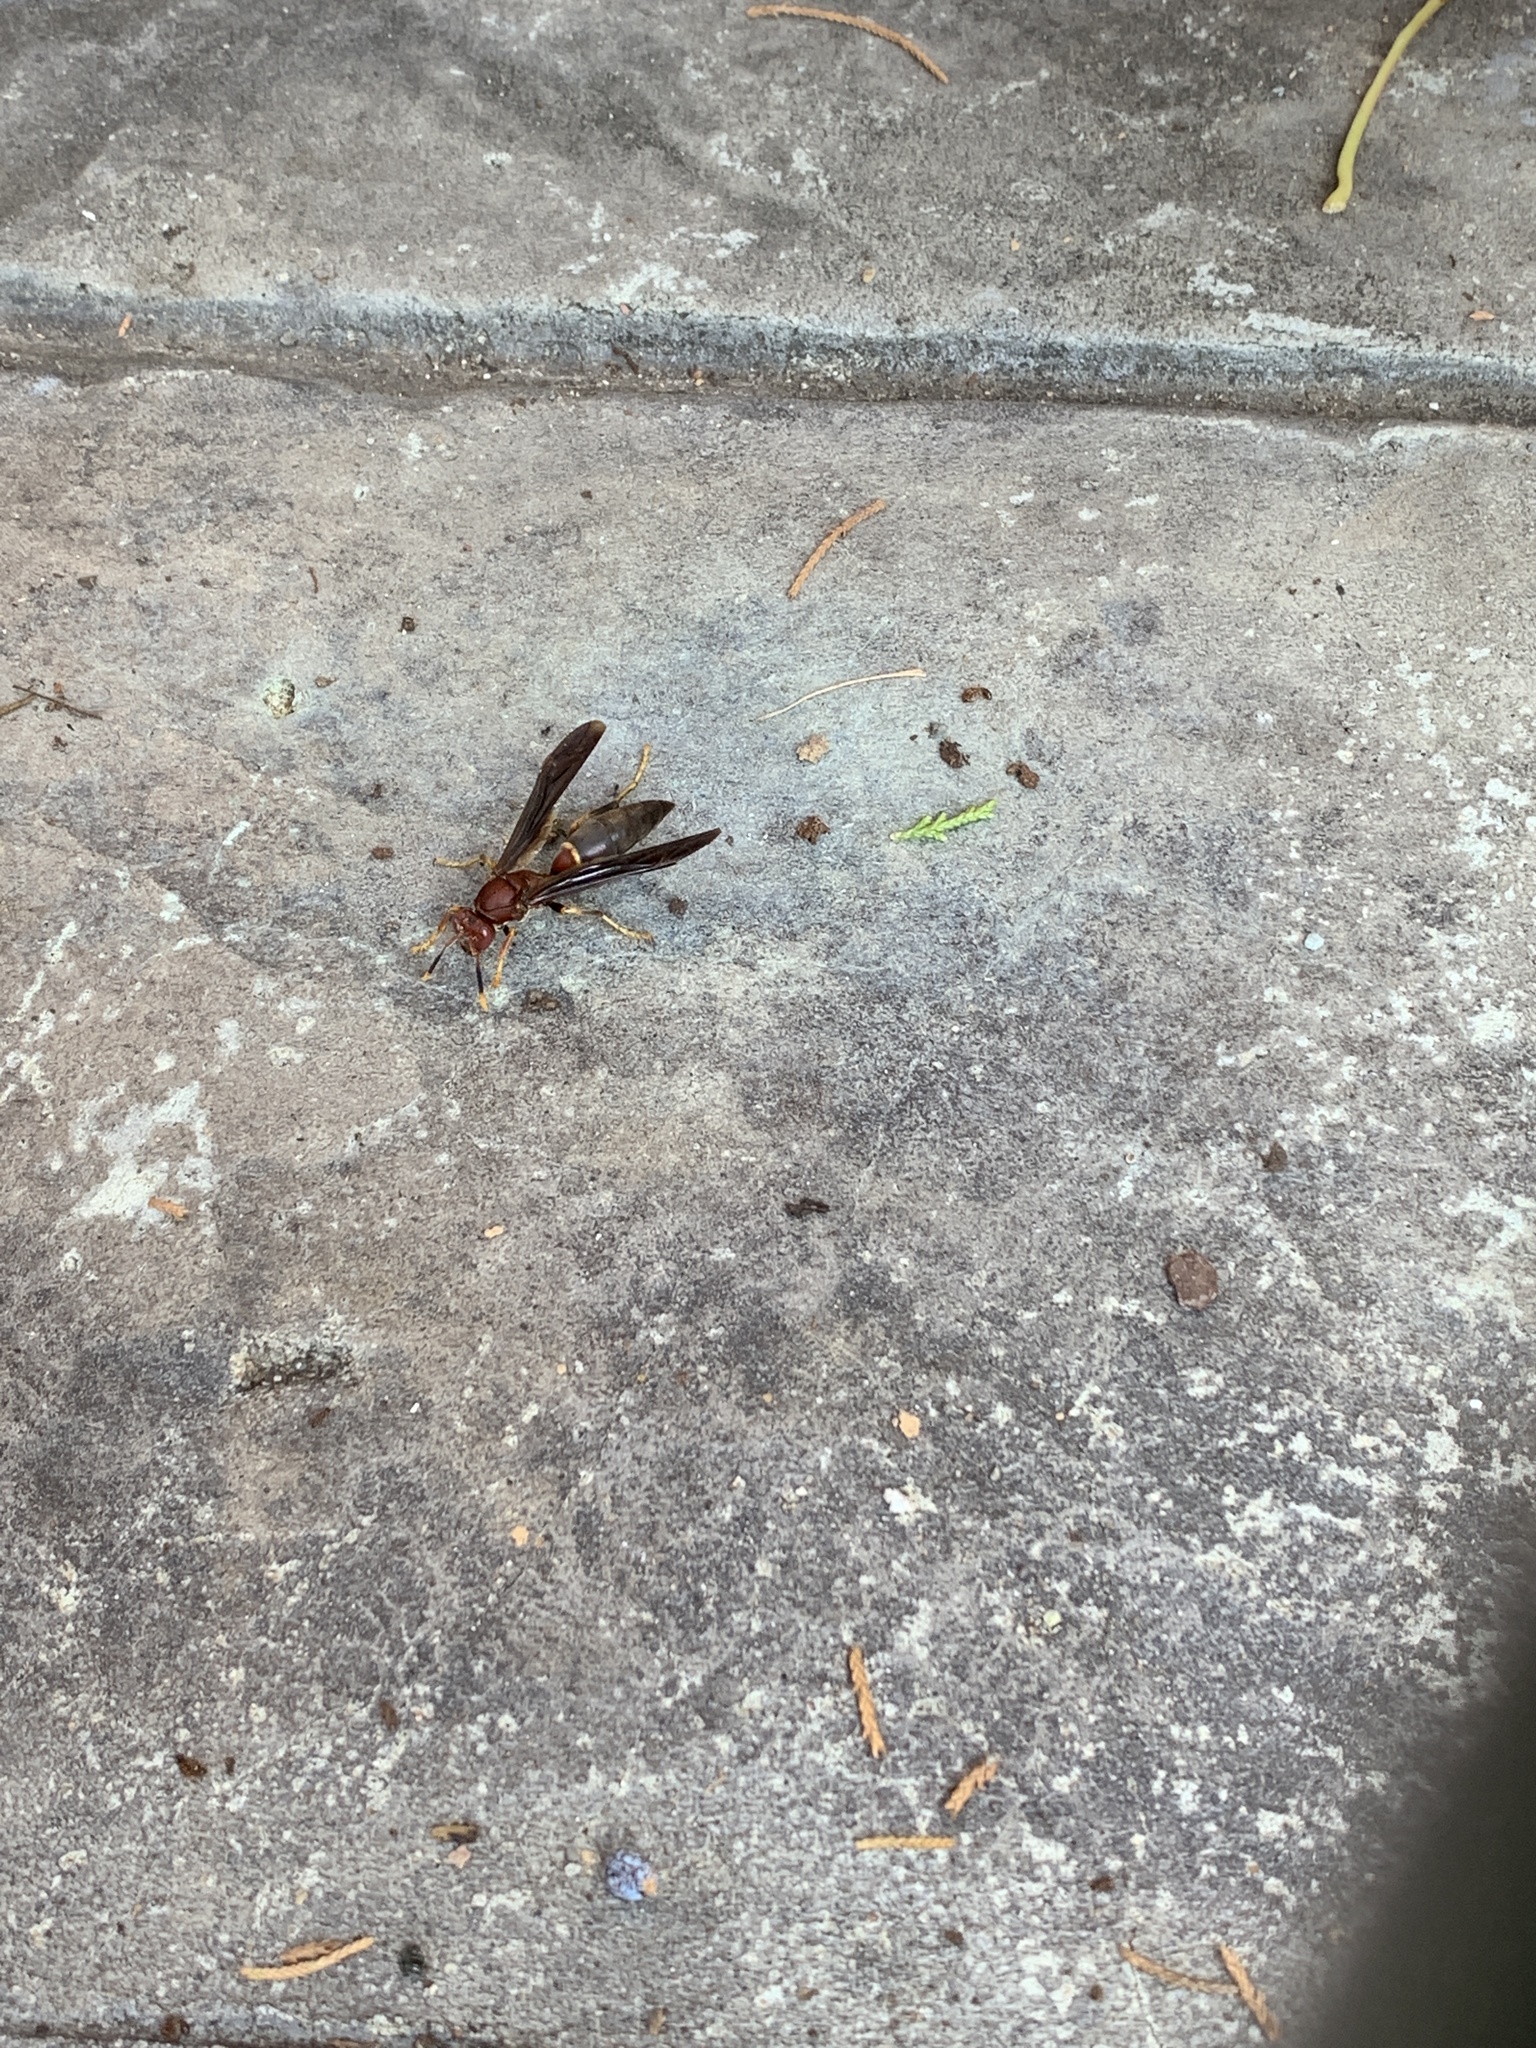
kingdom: Animalia
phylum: Arthropoda
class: Insecta
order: Hymenoptera
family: Eumenidae
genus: Polistes
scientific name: Polistes annularis
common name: Ringed paper wasp
